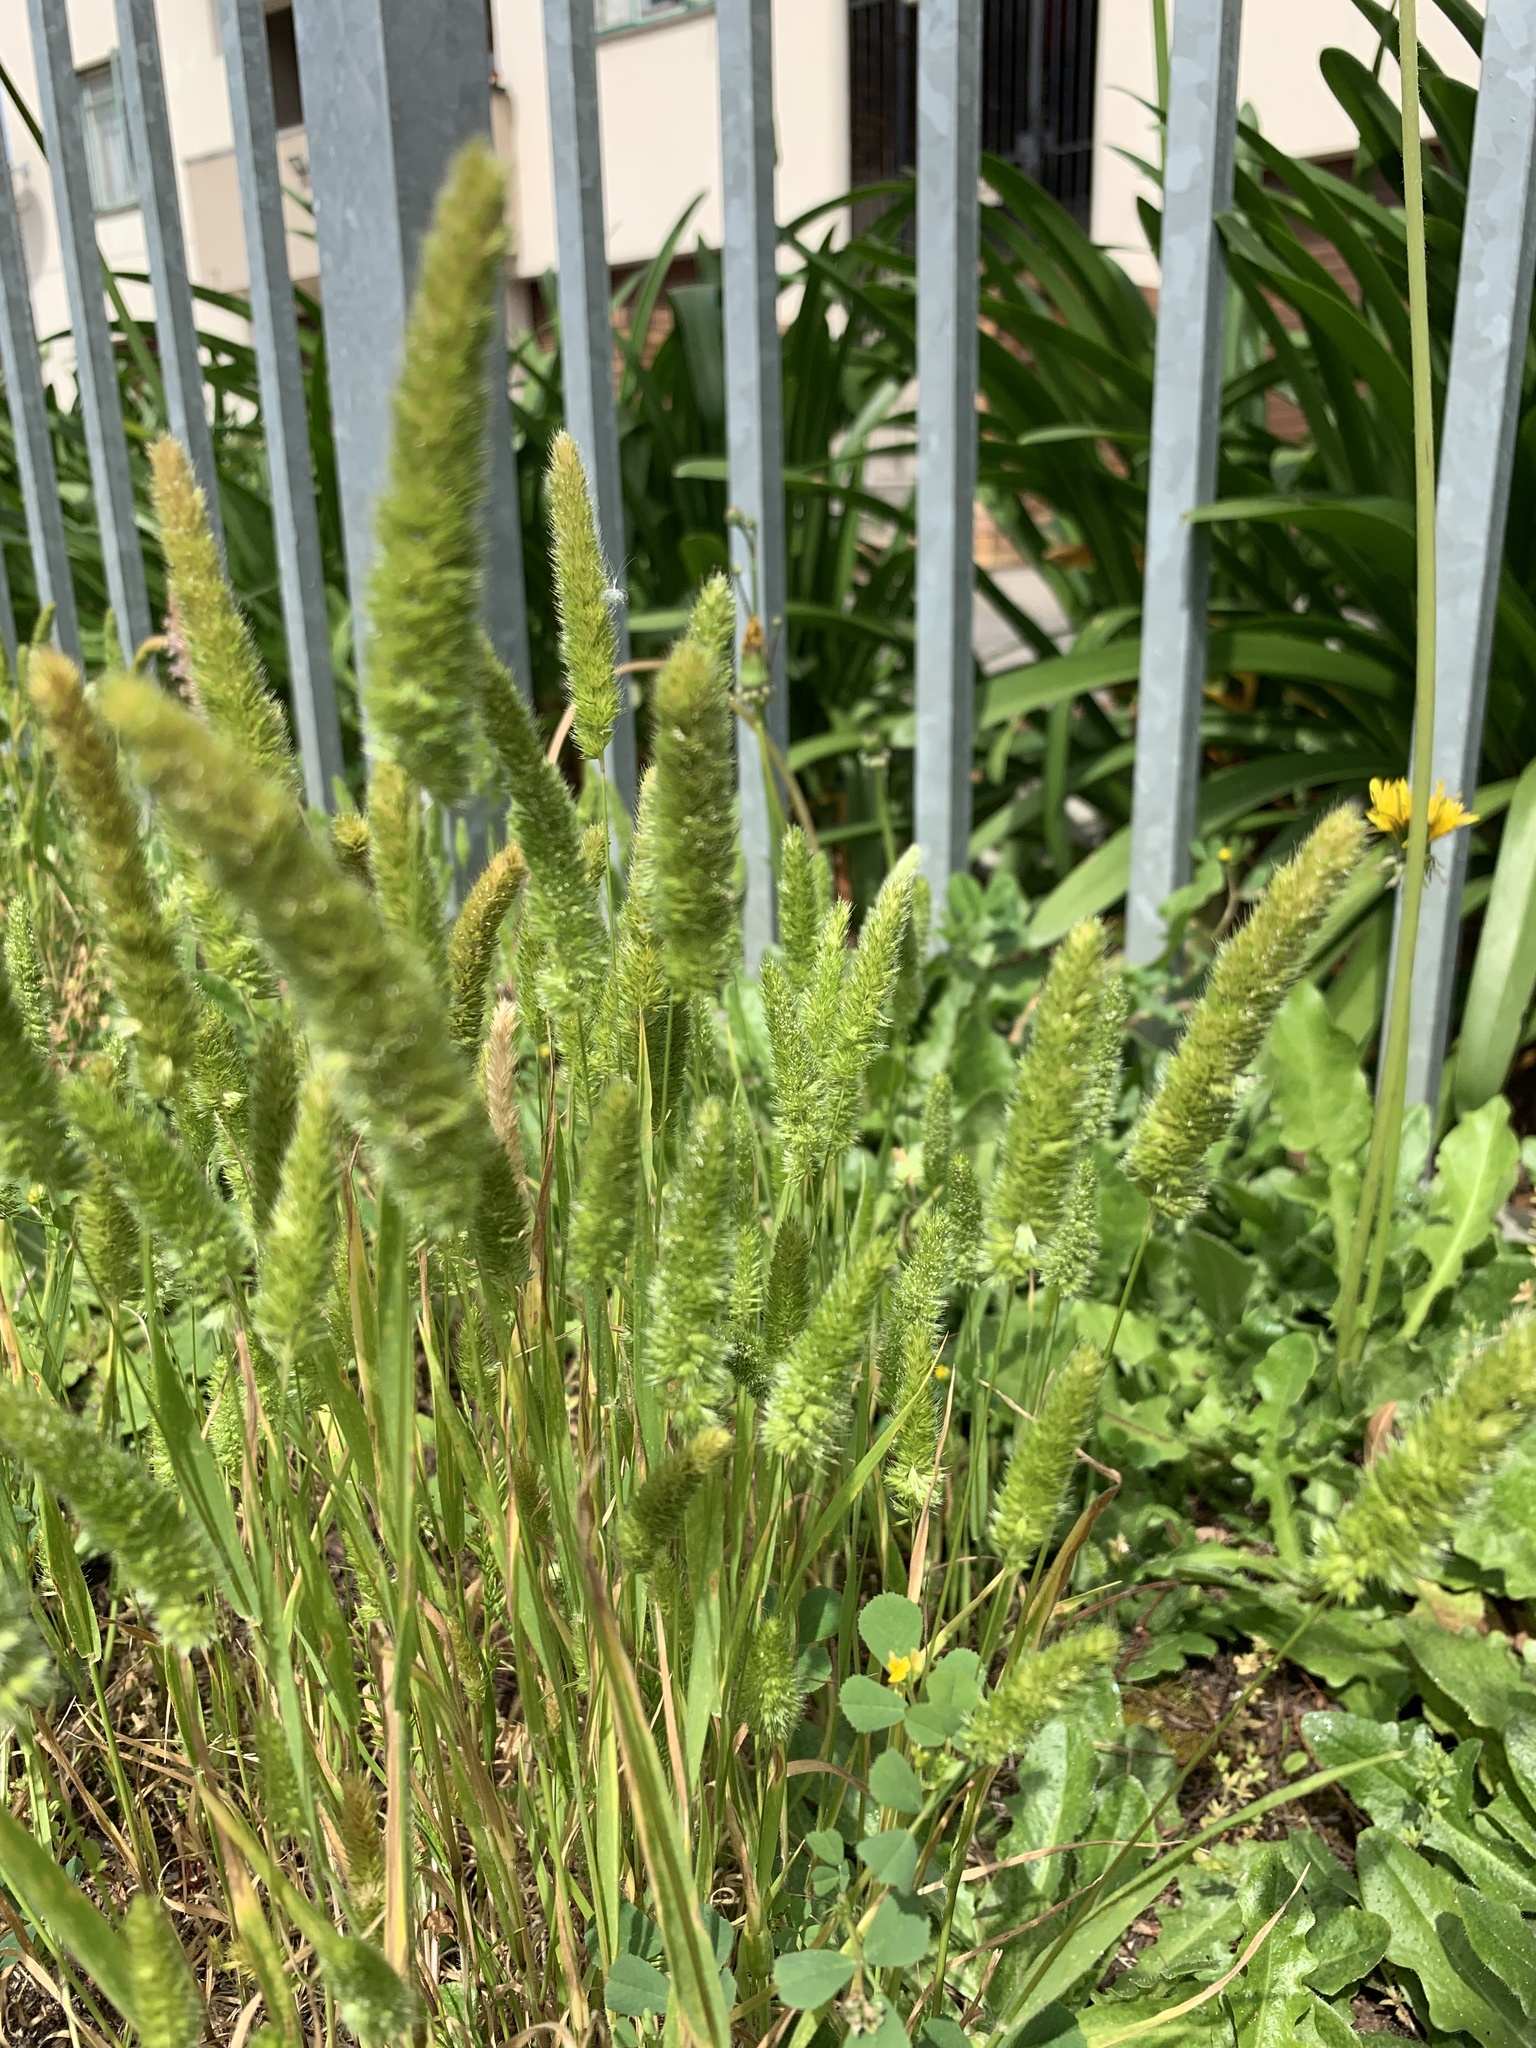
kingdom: Plantae
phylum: Tracheophyta
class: Liliopsida
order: Poales
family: Poaceae
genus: Rostraria
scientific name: Rostraria cristata
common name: Mediterranean hair-grass
